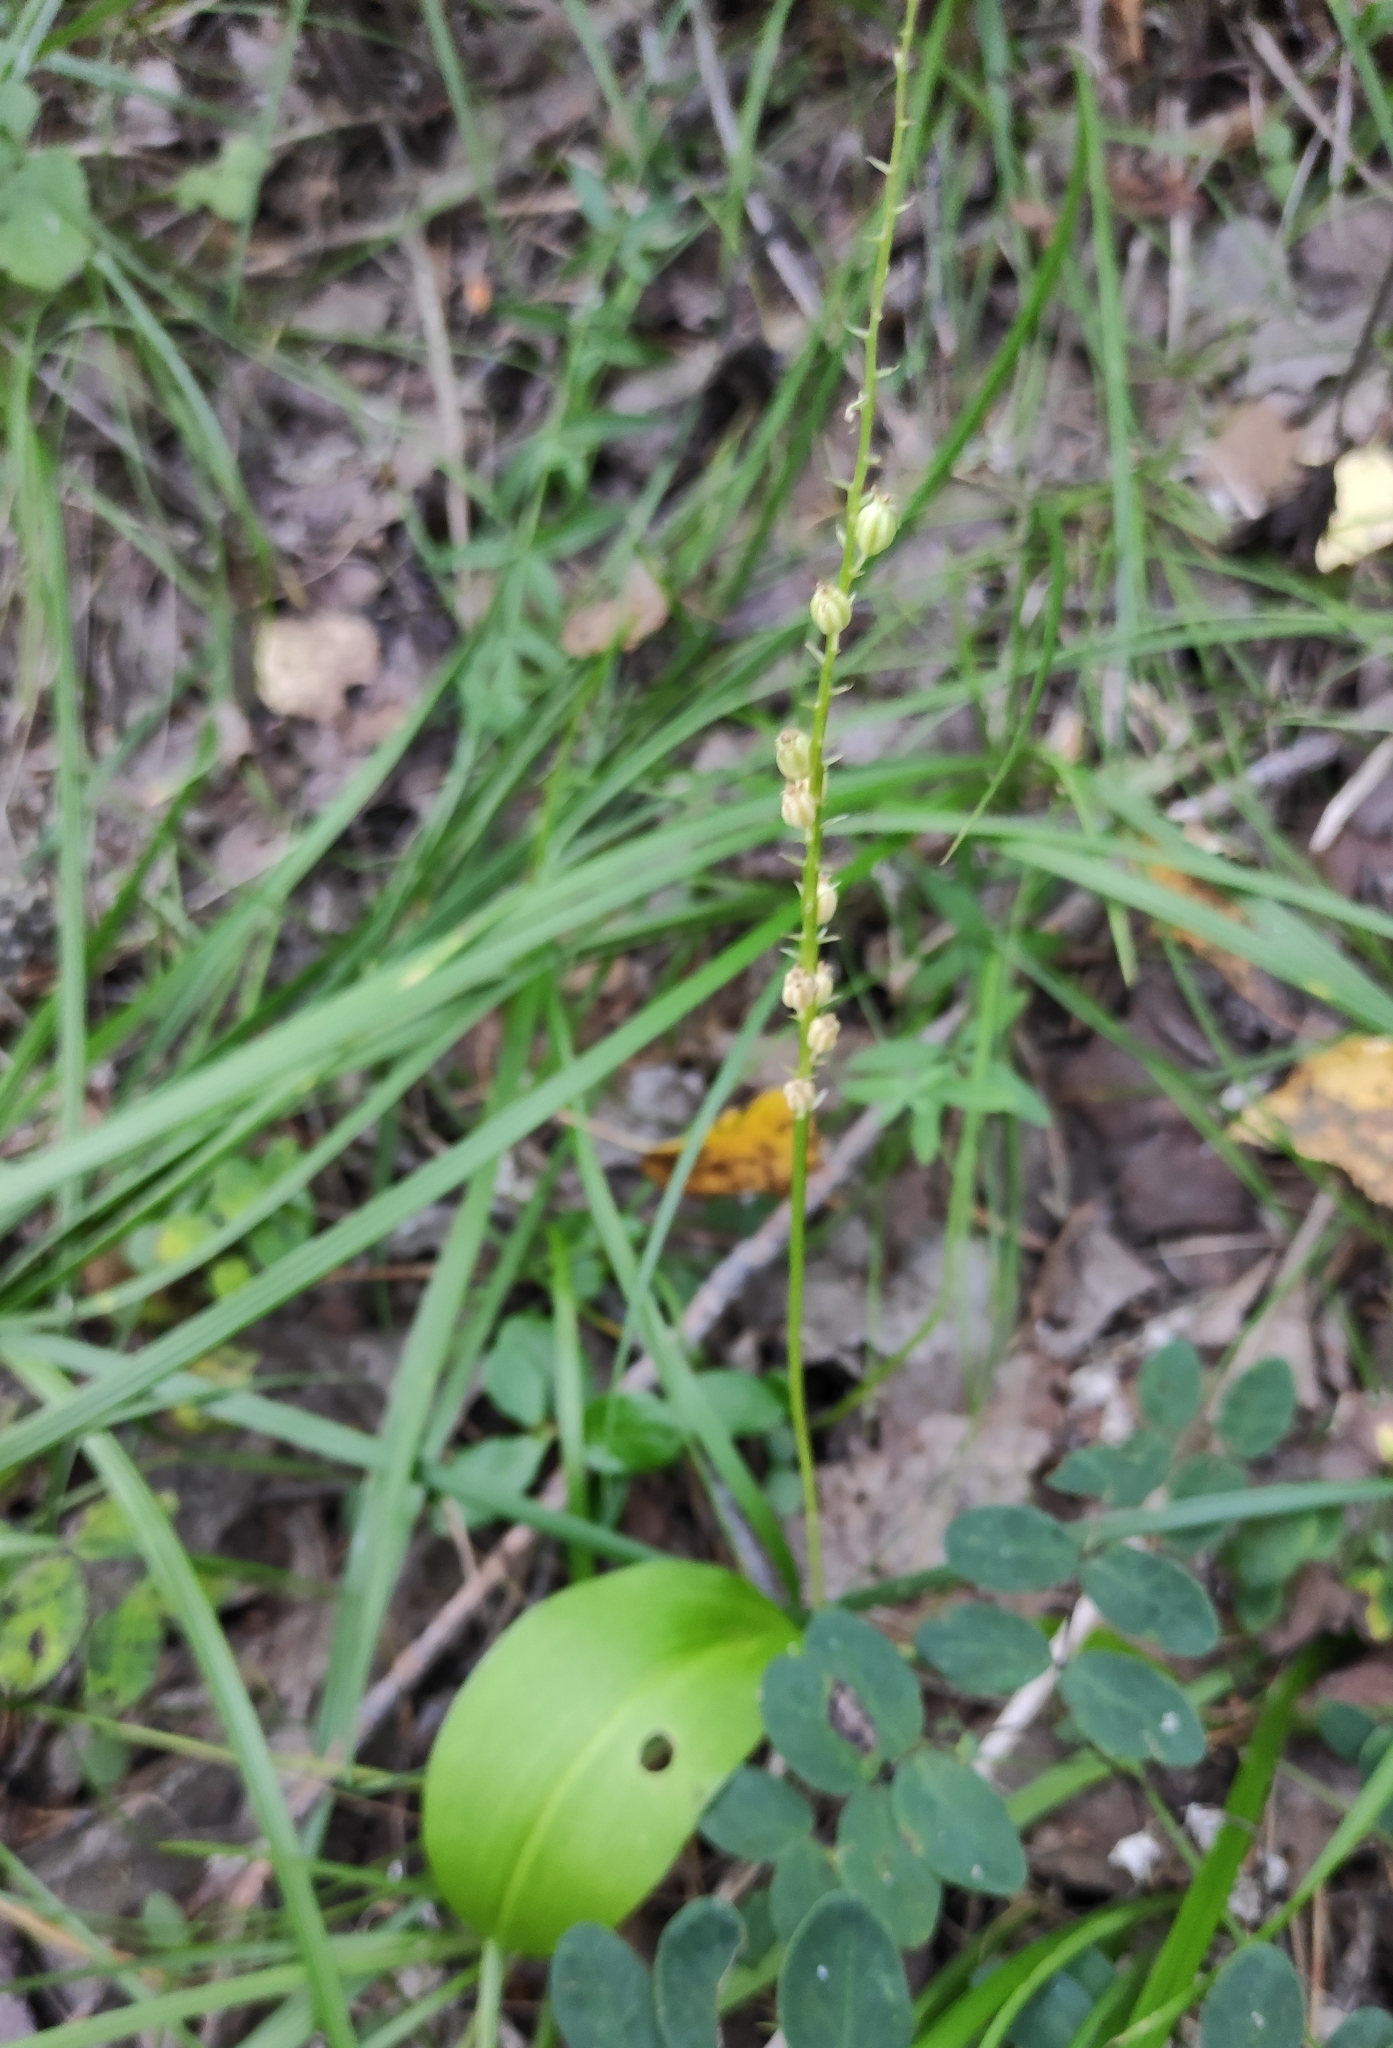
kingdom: Plantae
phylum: Tracheophyta
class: Liliopsida
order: Asparagales
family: Orchidaceae
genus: Malaxis
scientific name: Malaxis monophyllos
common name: White adder's-mouth
